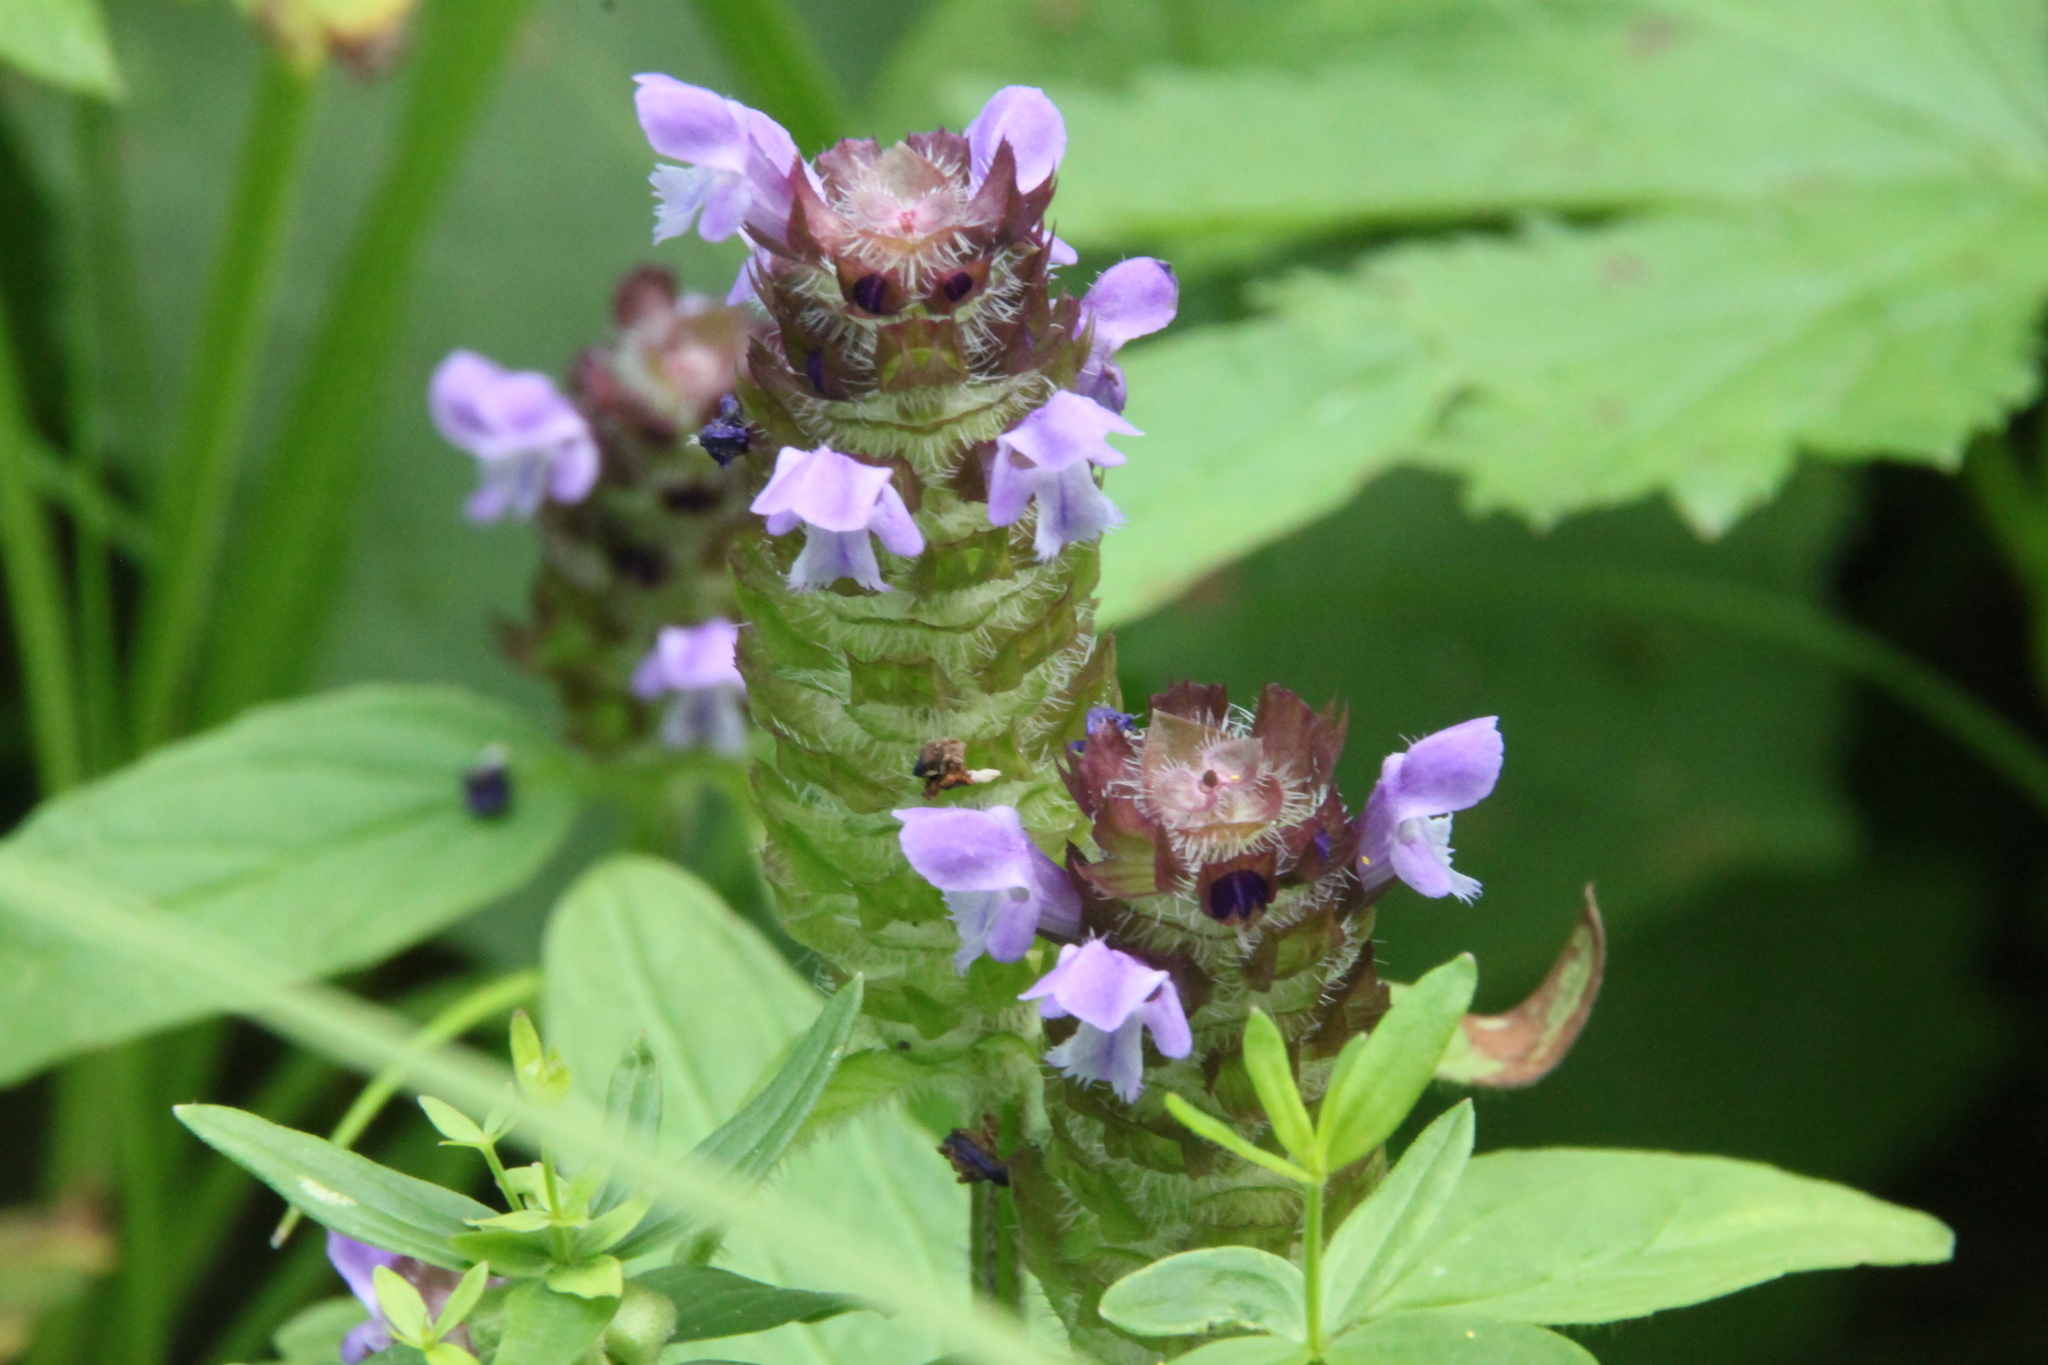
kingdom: Plantae
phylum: Tracheophyta
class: Magnoliopsida
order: Lamiales
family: Lamiaceae
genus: Prunella
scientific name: Prunella vulgaris
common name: Heal-all
